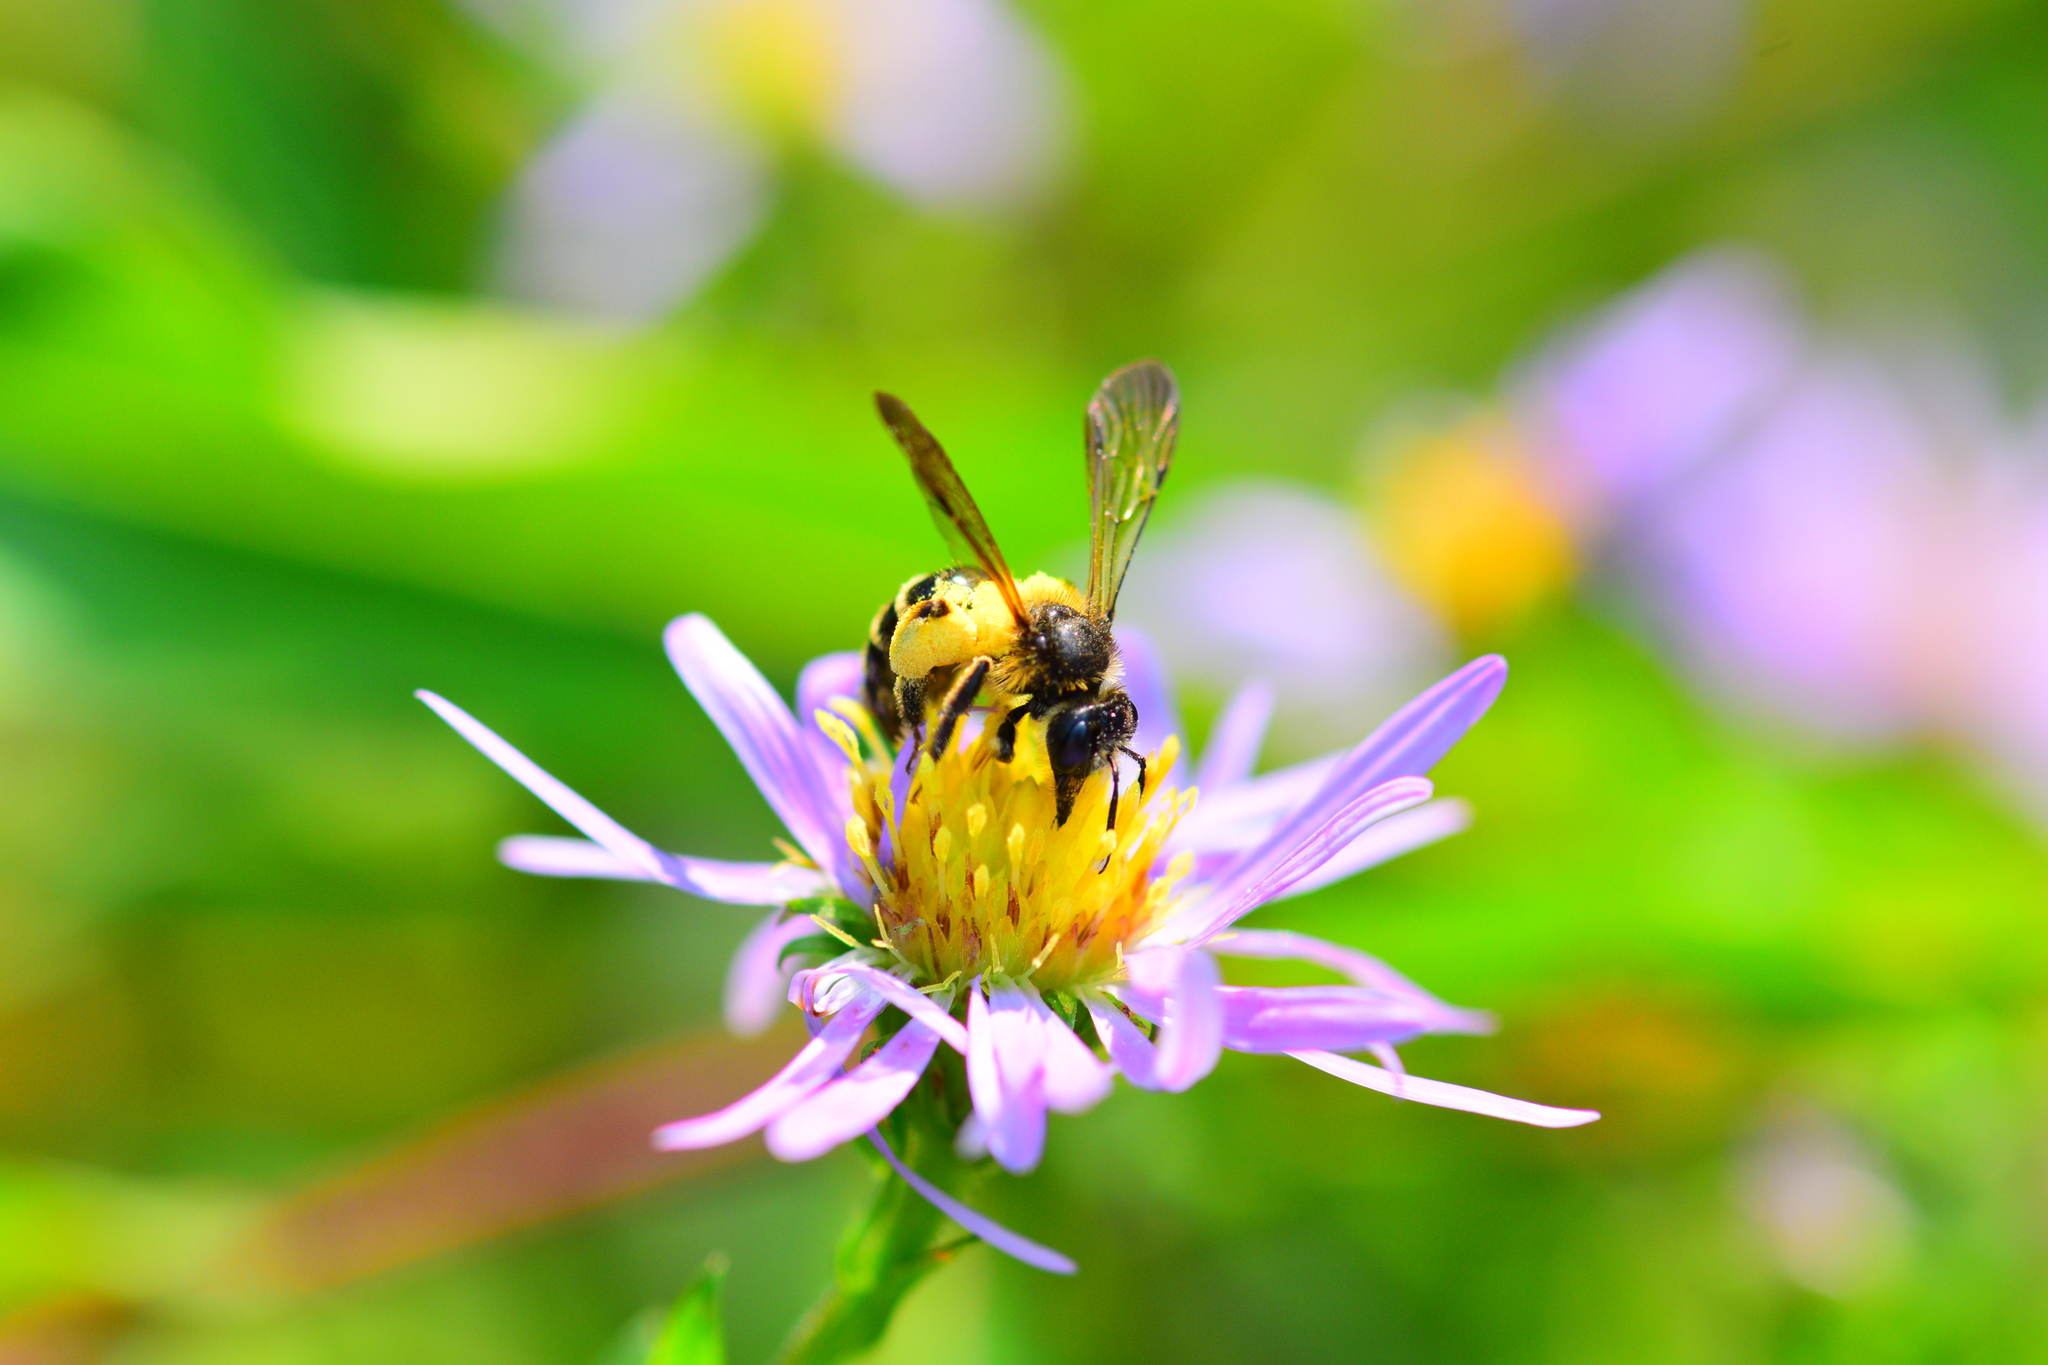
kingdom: Animalia
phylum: Arthropoda
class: Insecta
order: Hymenoptera
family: Andrenidae
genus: Andrena
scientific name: Andrena robervalensis
